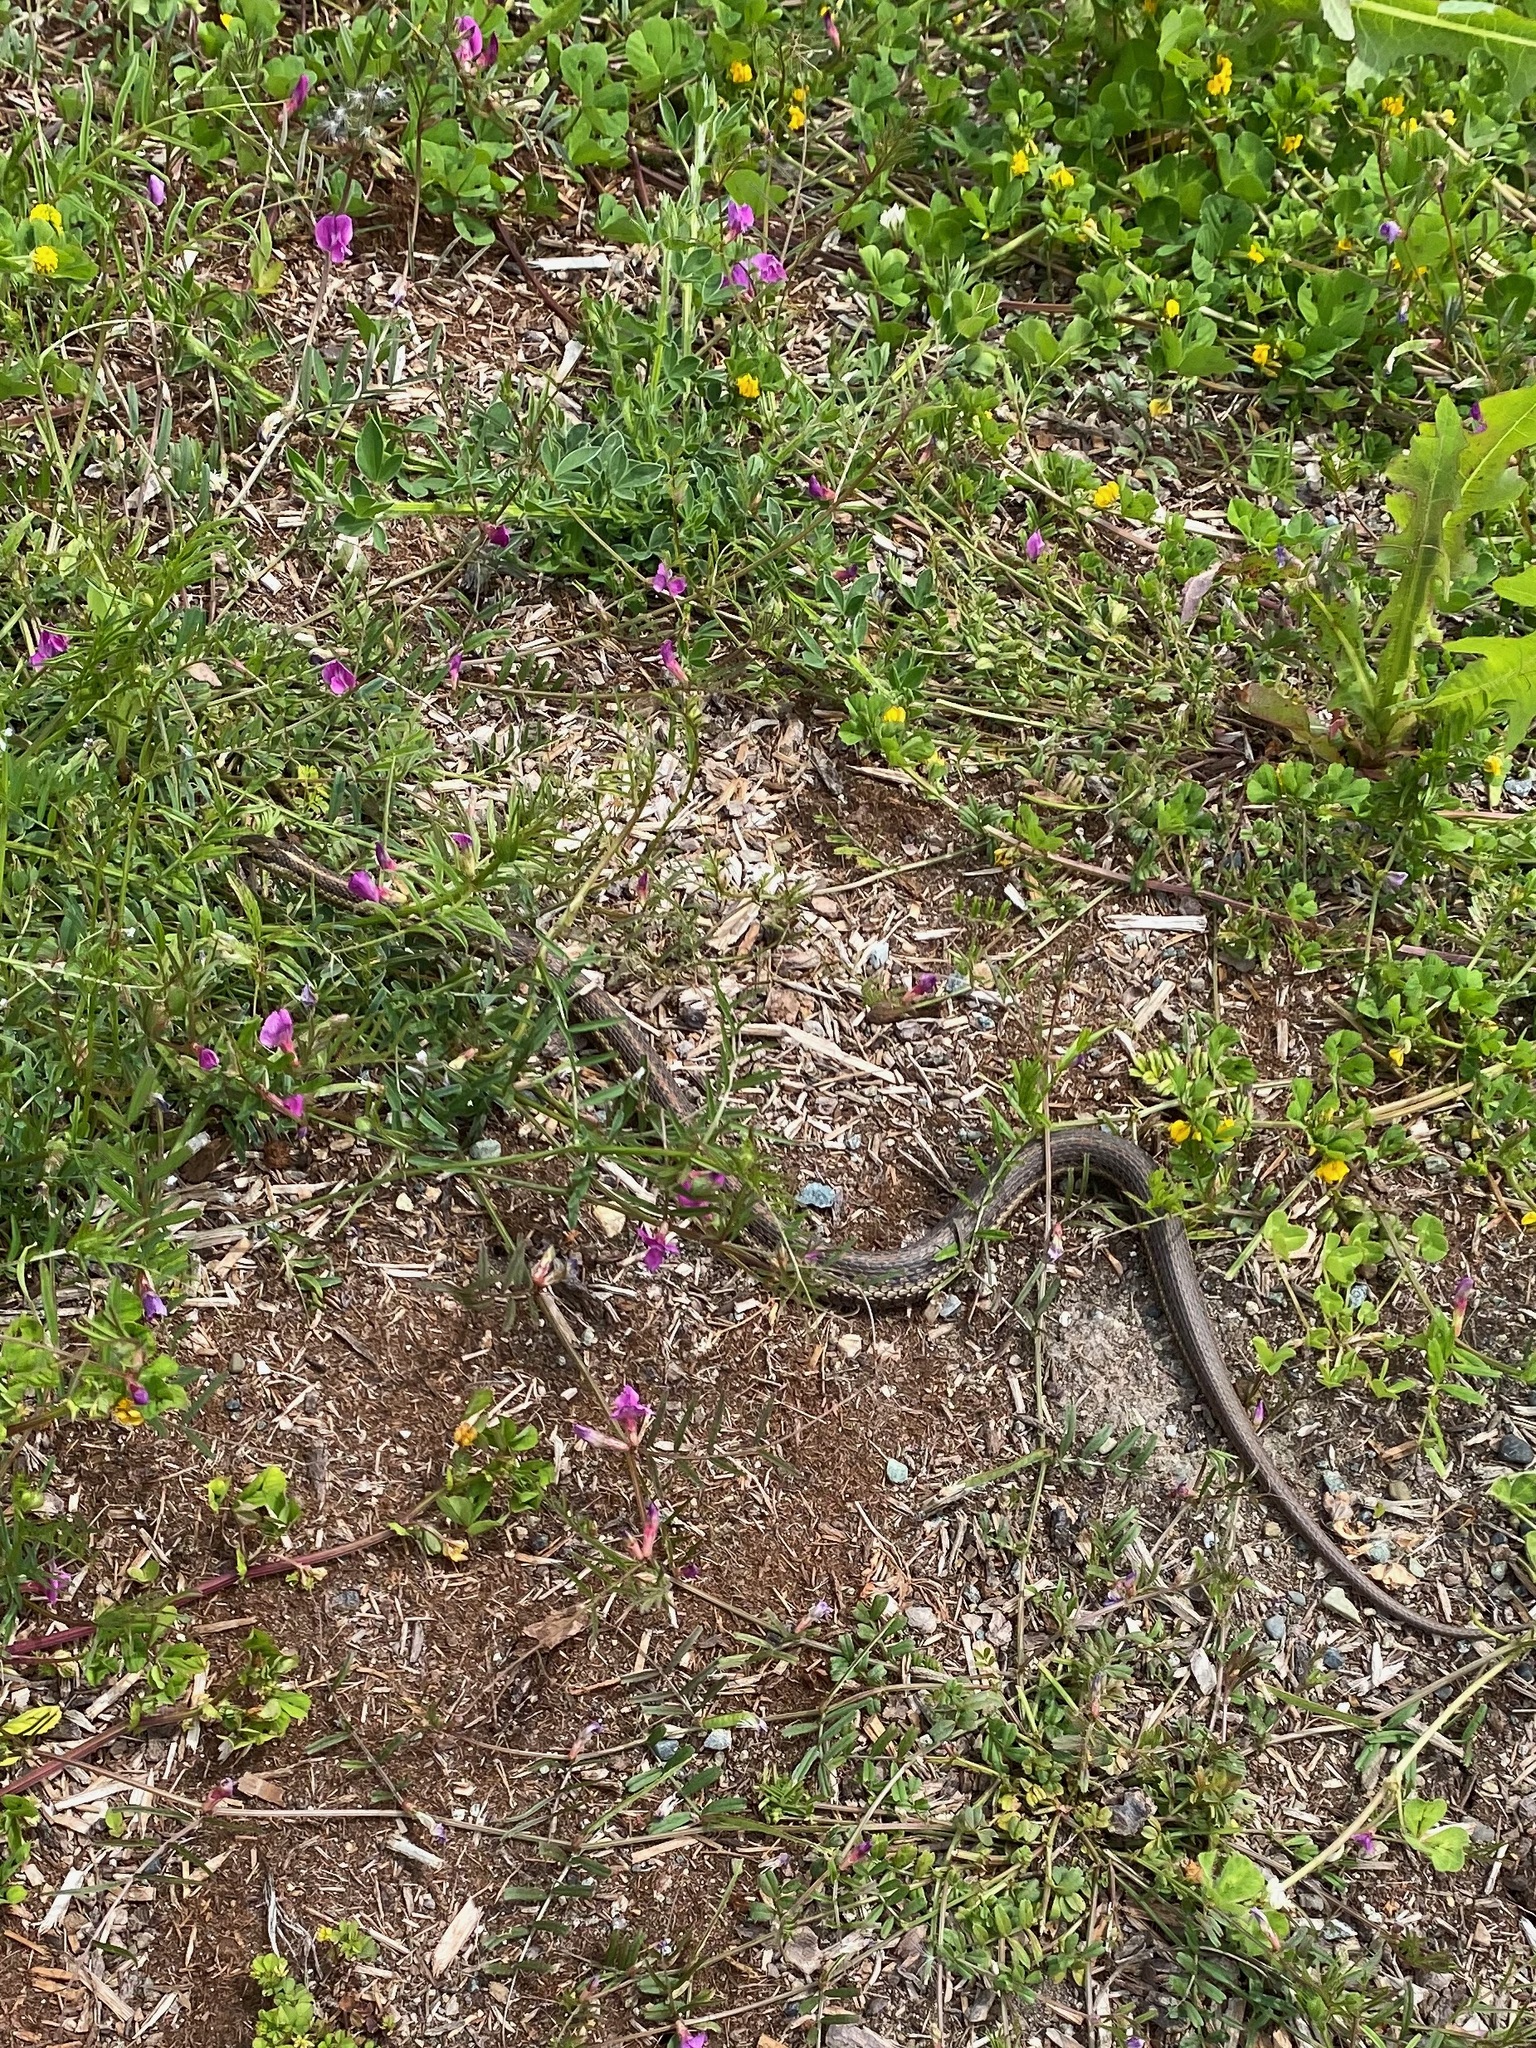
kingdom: Animalia
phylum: Chordata
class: Squamata
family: Colubridae
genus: Thamnophis
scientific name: Thamnophis ordinoides
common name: Northwestern garter snake
